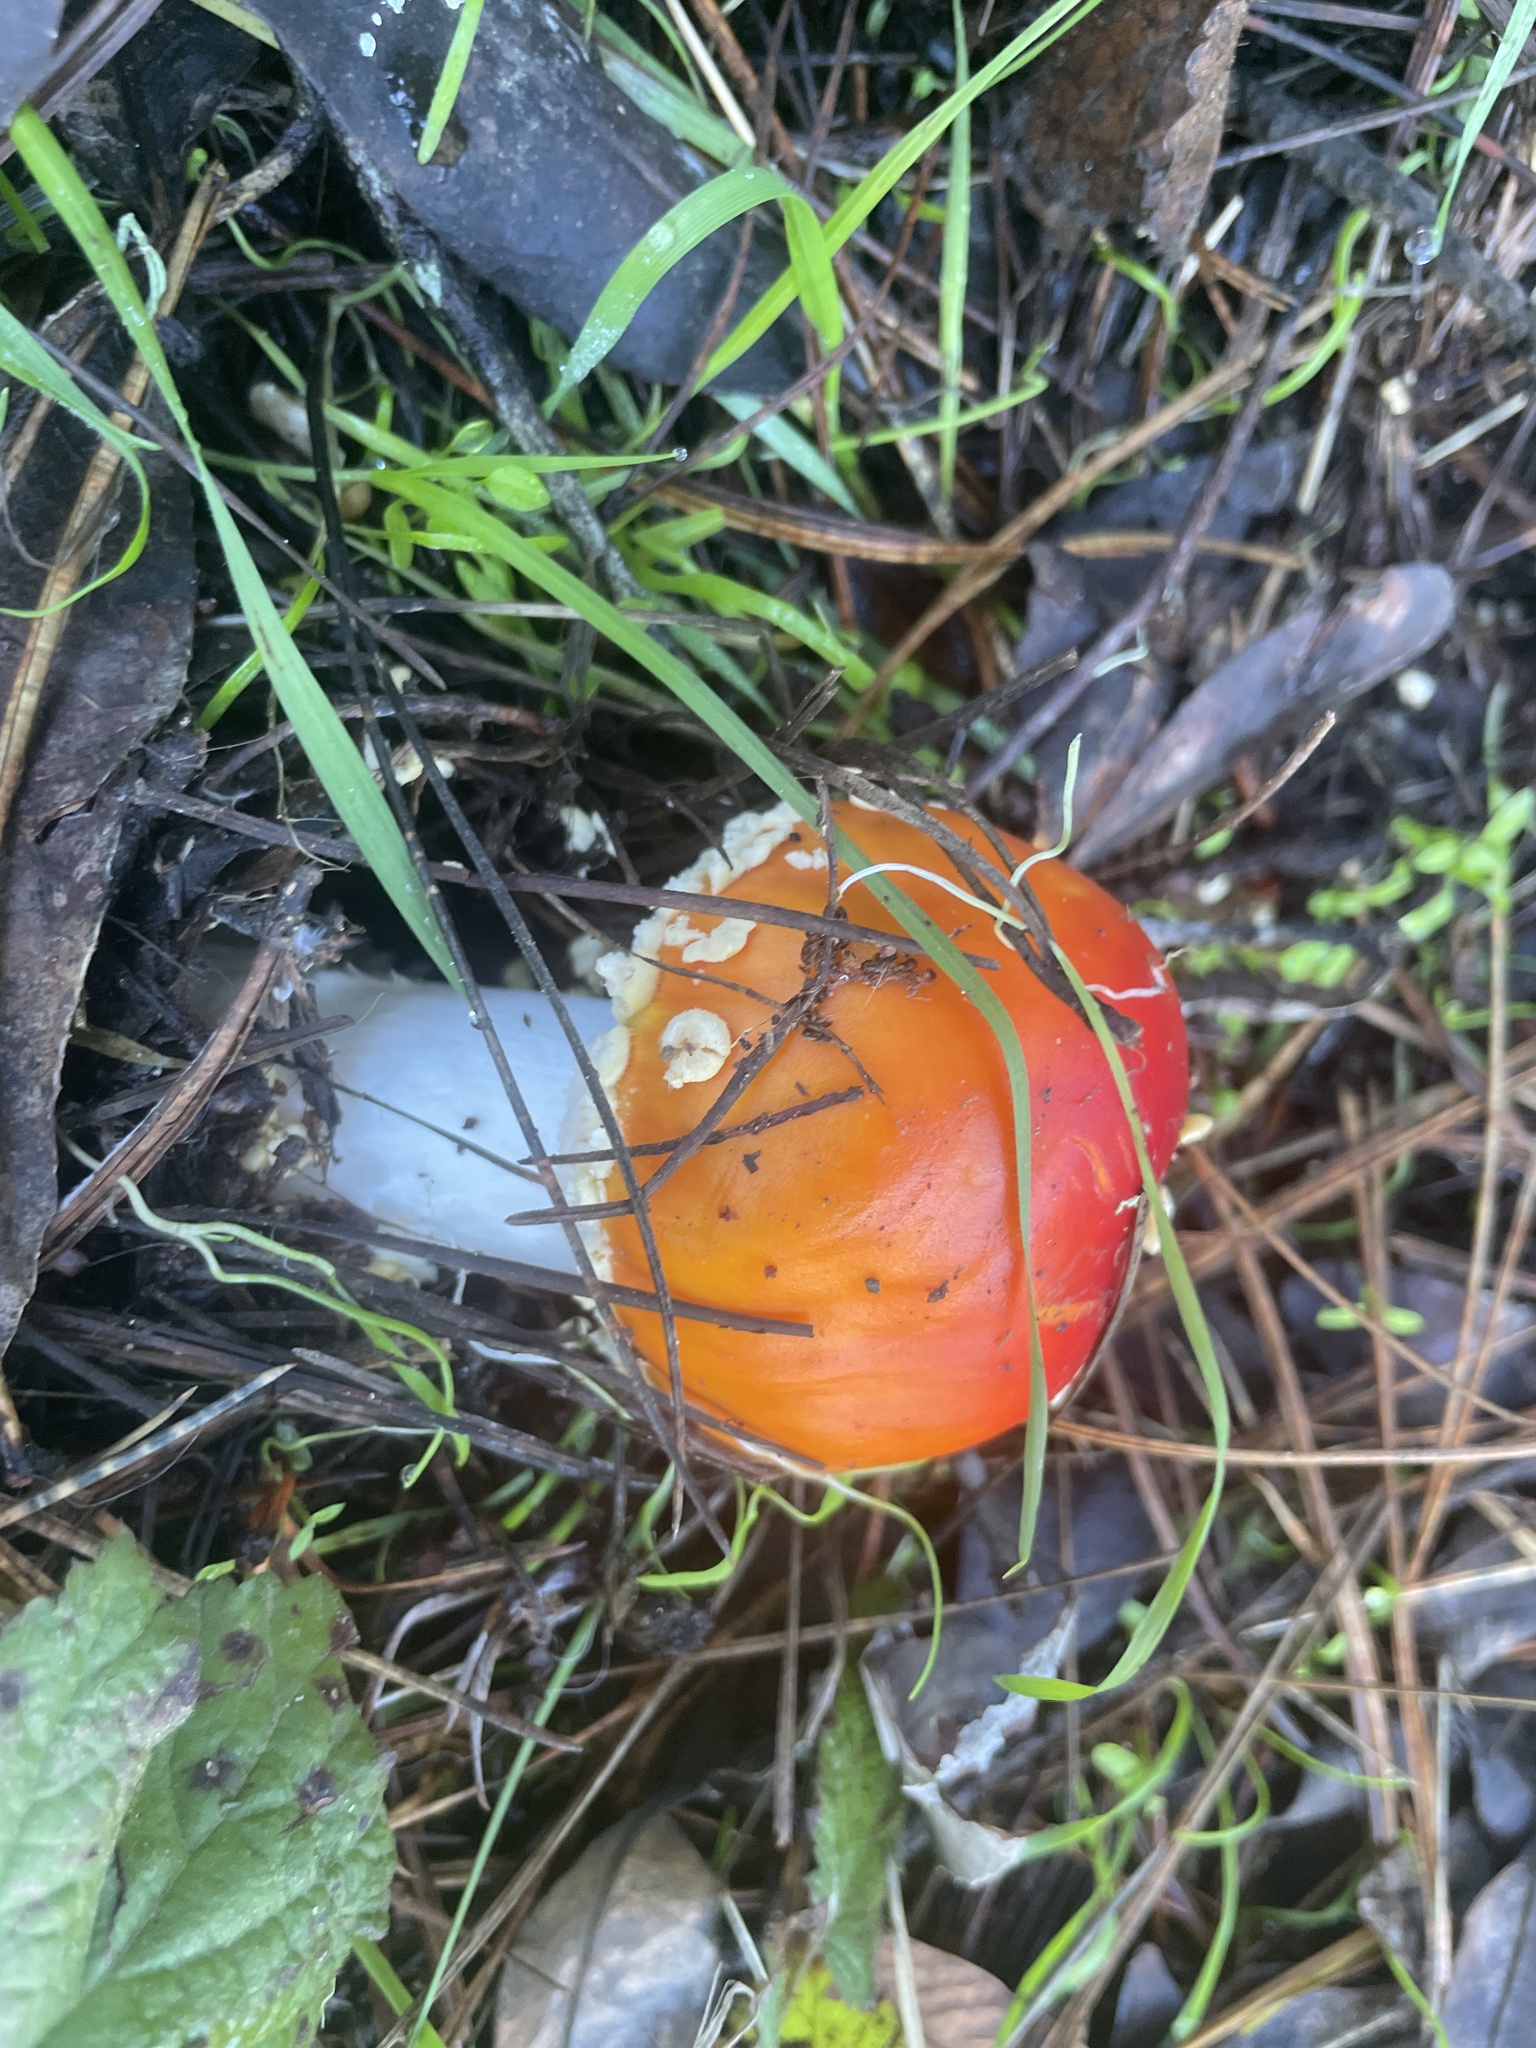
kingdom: Fungi
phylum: Basidiomycota
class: Agaricomycetes
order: Agaricales
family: Amanitaceae
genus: Amanita
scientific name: Amanita muscaria
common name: Fly agaric
